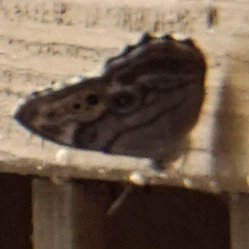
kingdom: Animalia
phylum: Arthropoda
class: Insecta
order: Lepidoptera
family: Nymphalidae
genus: Lethe
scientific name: Lethe anthedon
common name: Northern pearly-eye
